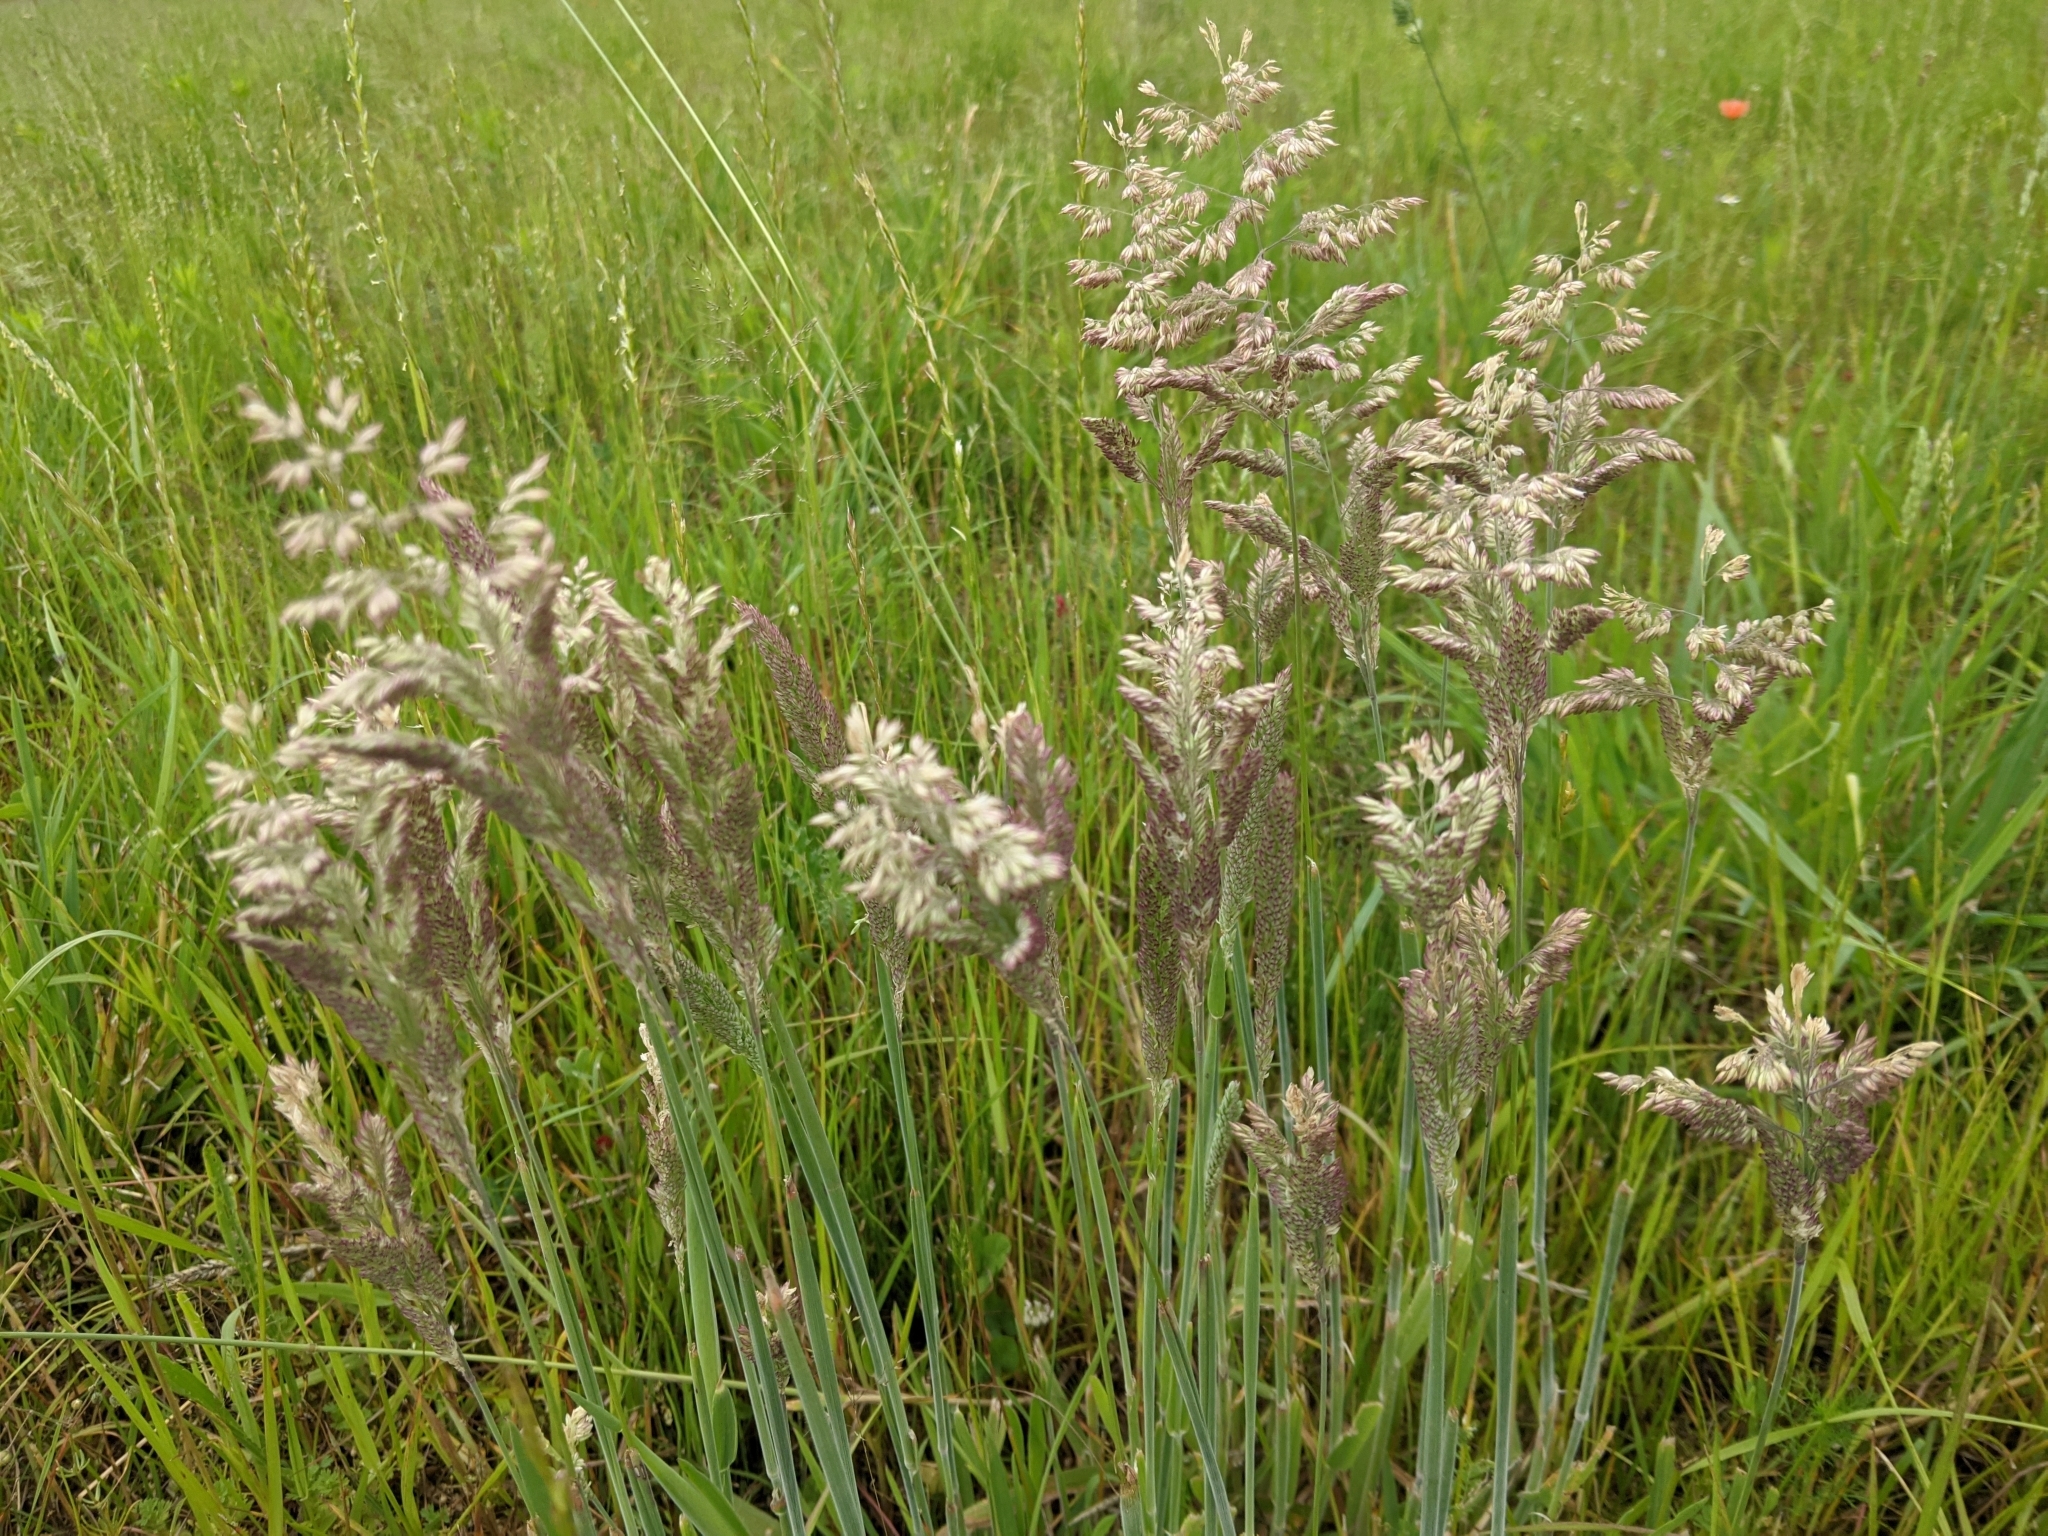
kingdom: Plantae
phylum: Tracheophyta
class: Liliopsida
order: Poales
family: Poaceae
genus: Holcus
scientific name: Holcus lanatus
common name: Yorkshire-fog
